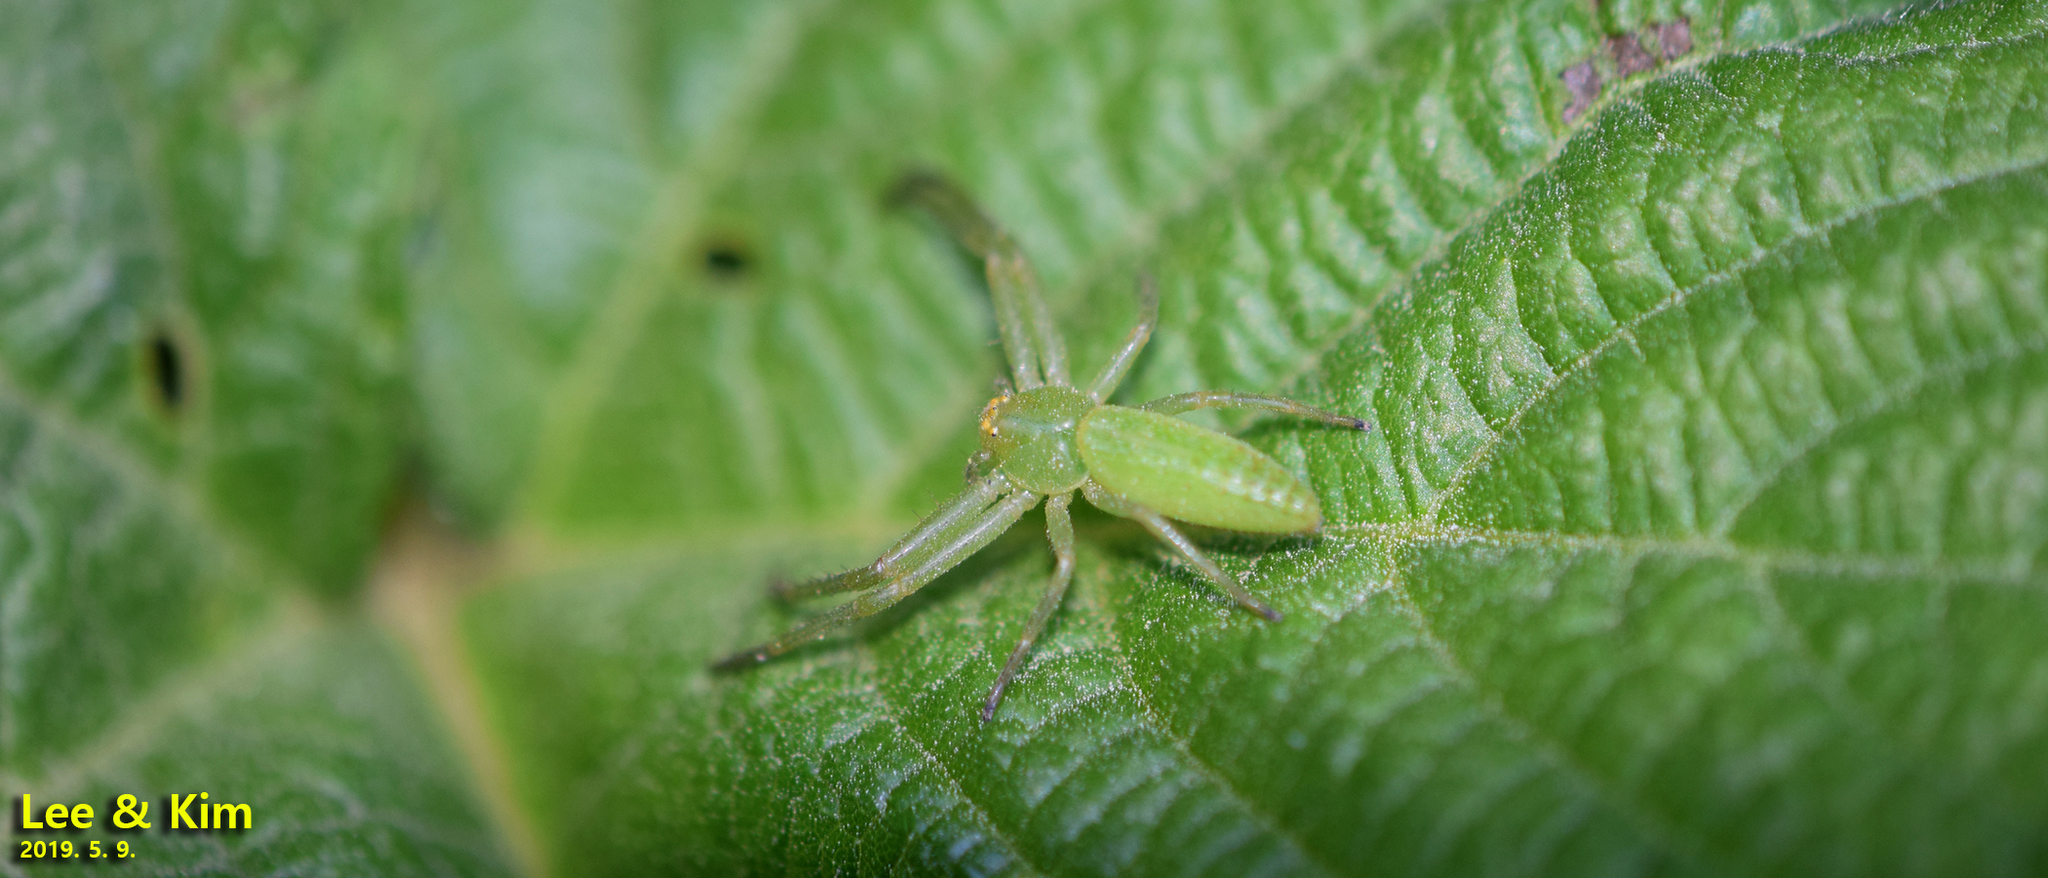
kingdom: Animalia
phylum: Arthropoda
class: Arachnida
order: Araneae
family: Thomisidae
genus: Oxytate
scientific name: Oxytate striatipes
